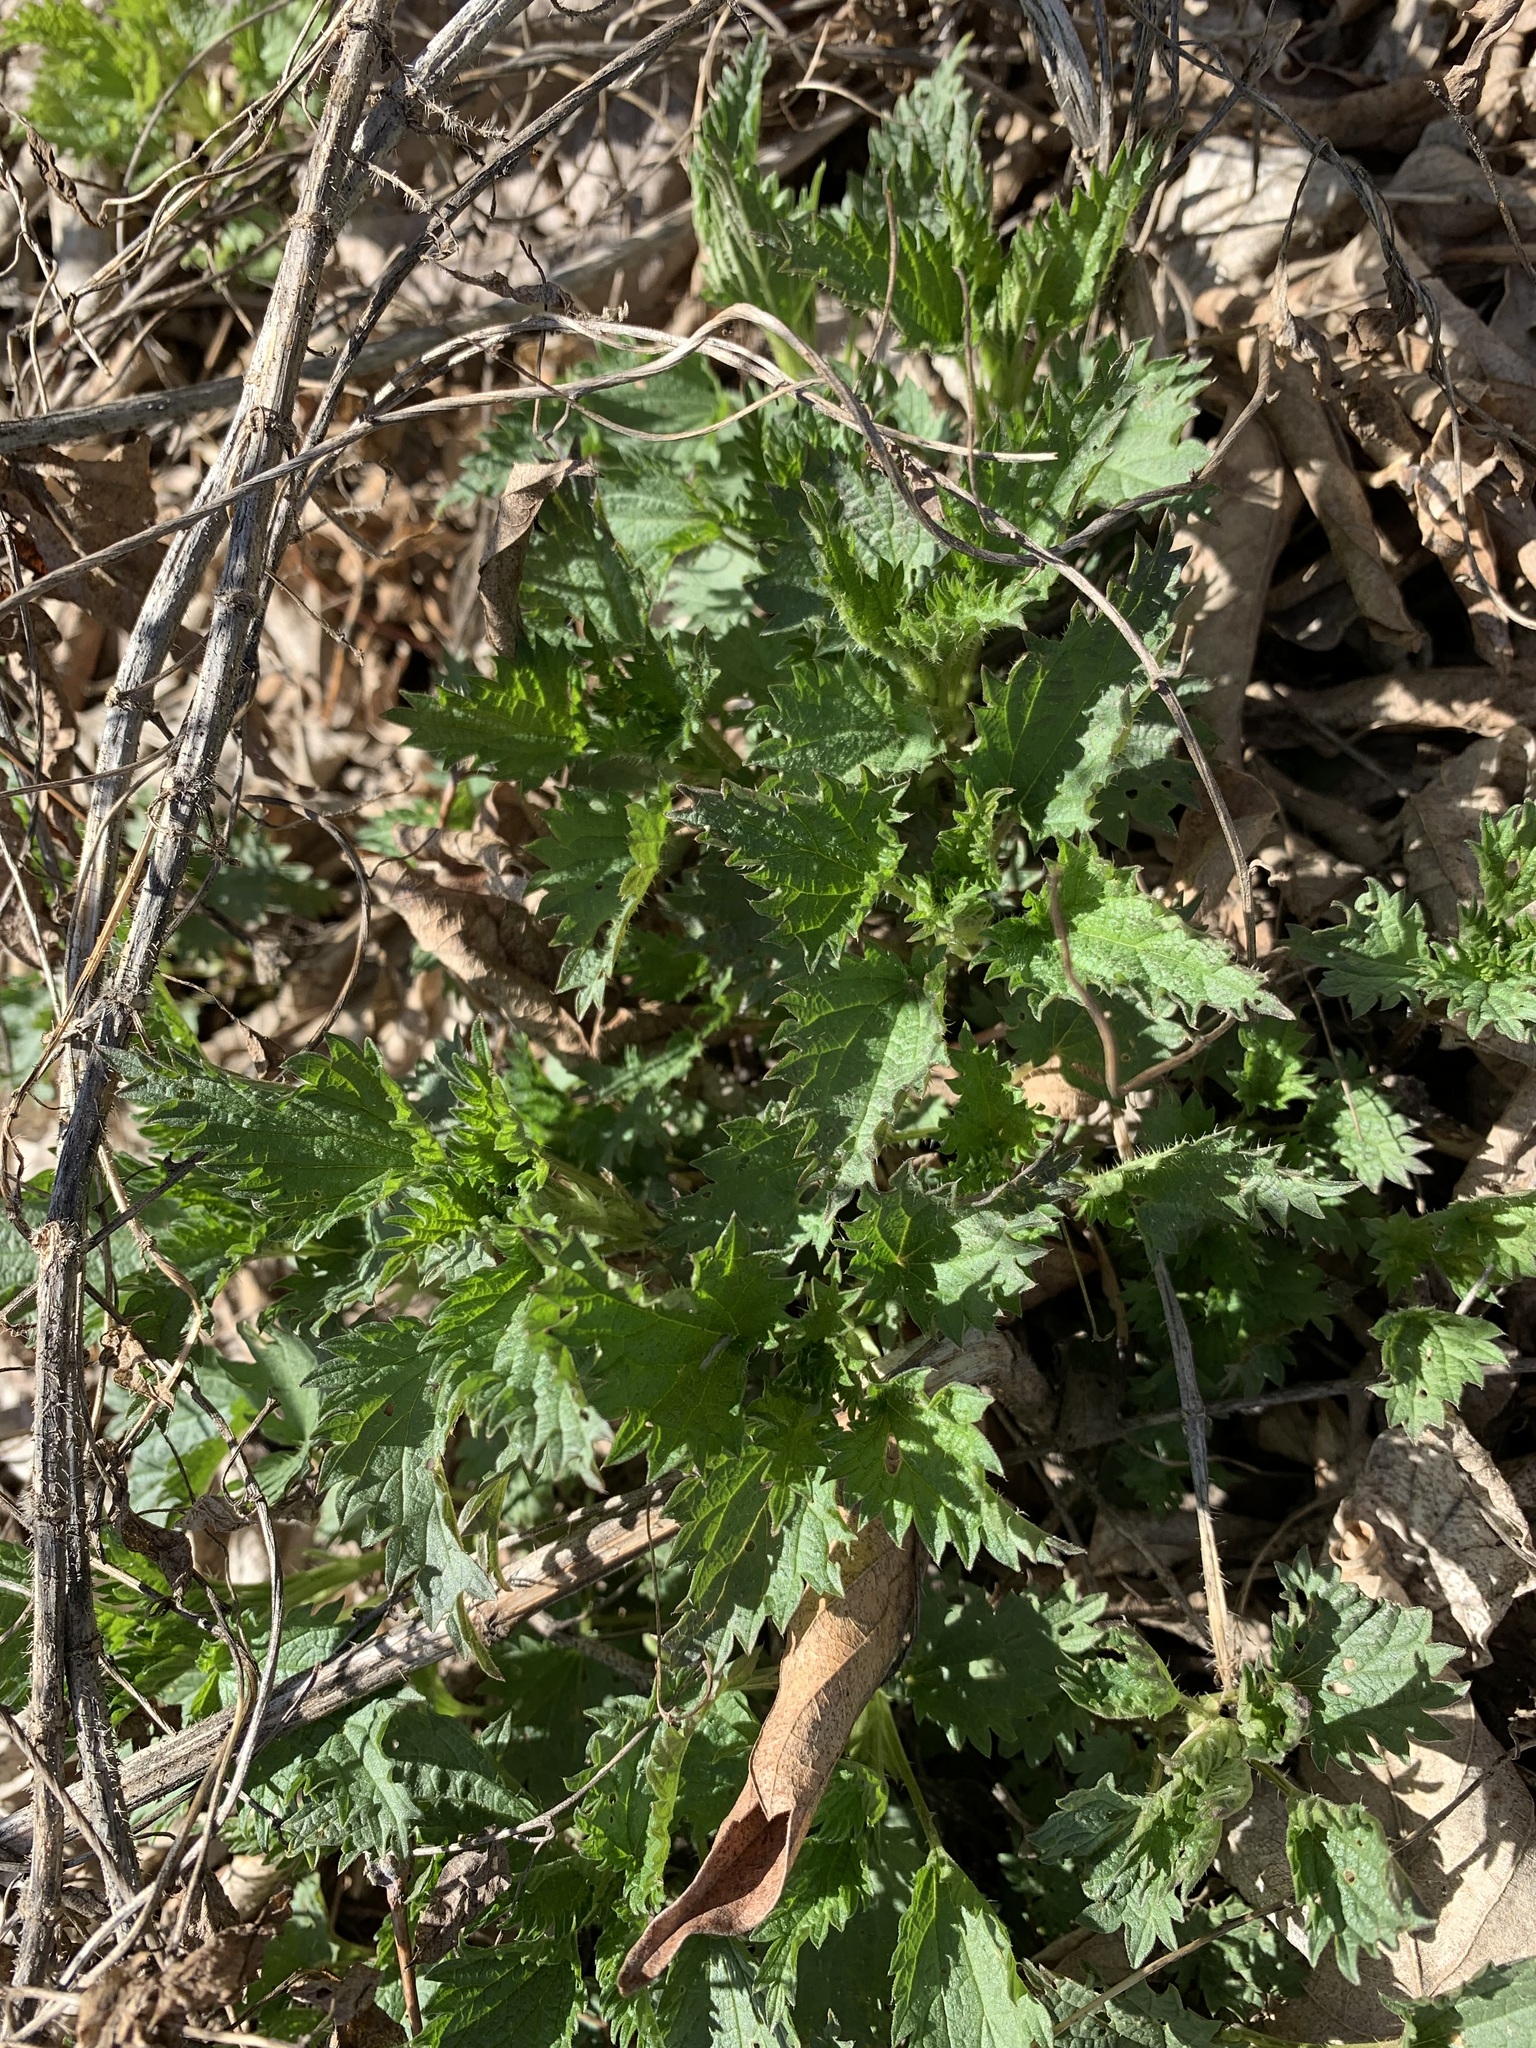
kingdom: Plantae
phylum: Tracheophyta
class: Magnoliopsida
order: Rosales
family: Urticaceae
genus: Urtica
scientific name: Urtica dioica
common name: Common nettle
